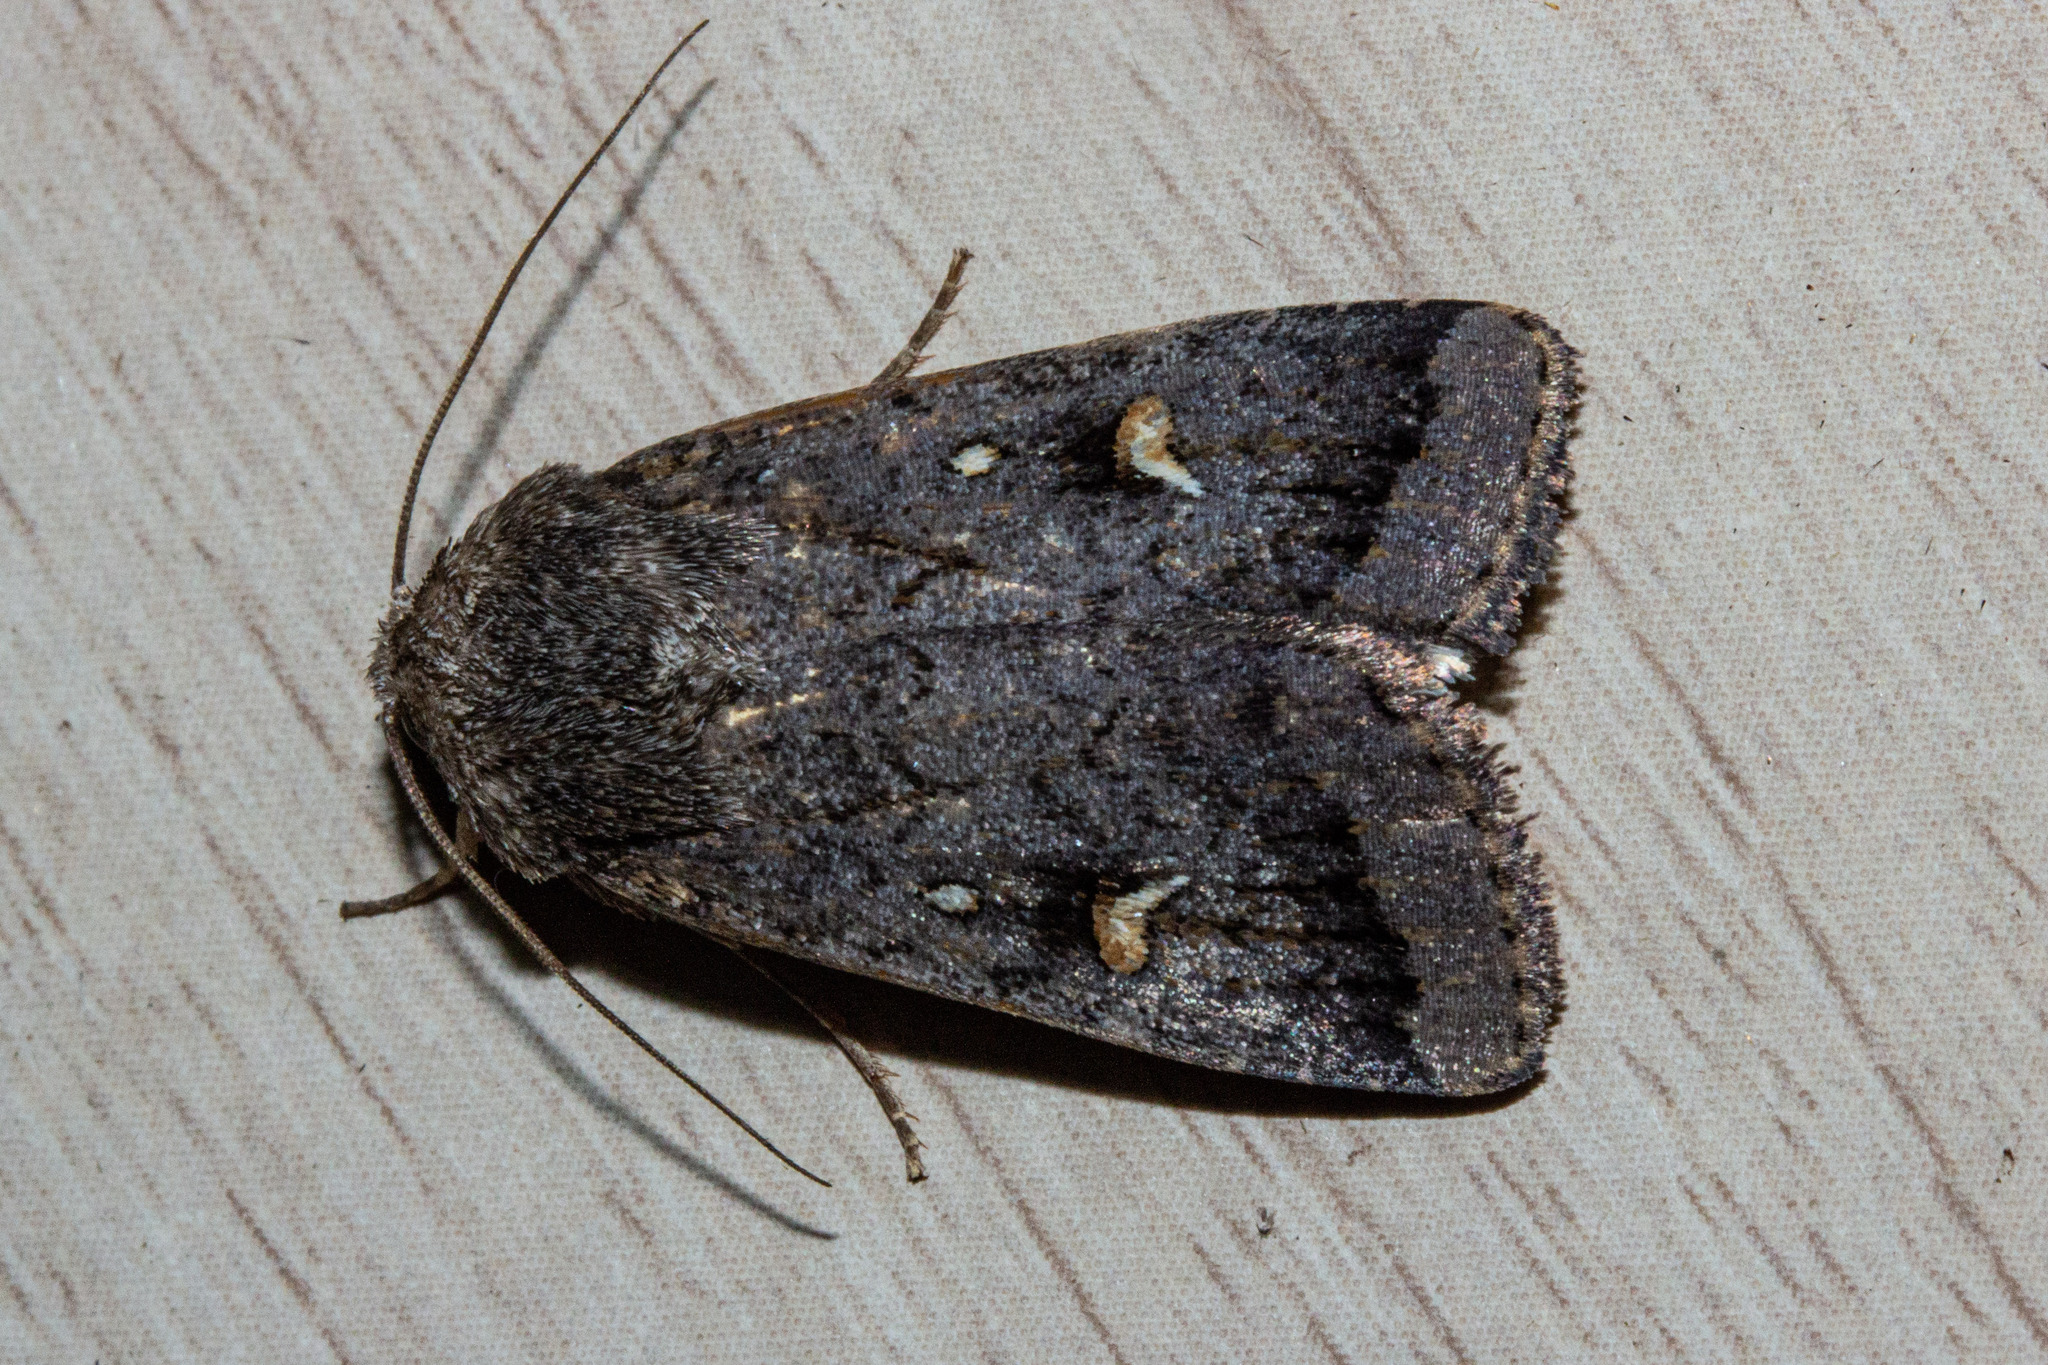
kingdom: Animalia
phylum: Arthropoda
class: Insecta
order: Lepidoptera
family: Noctuidae
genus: Proteuxoa
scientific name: Proteuxoa comma
